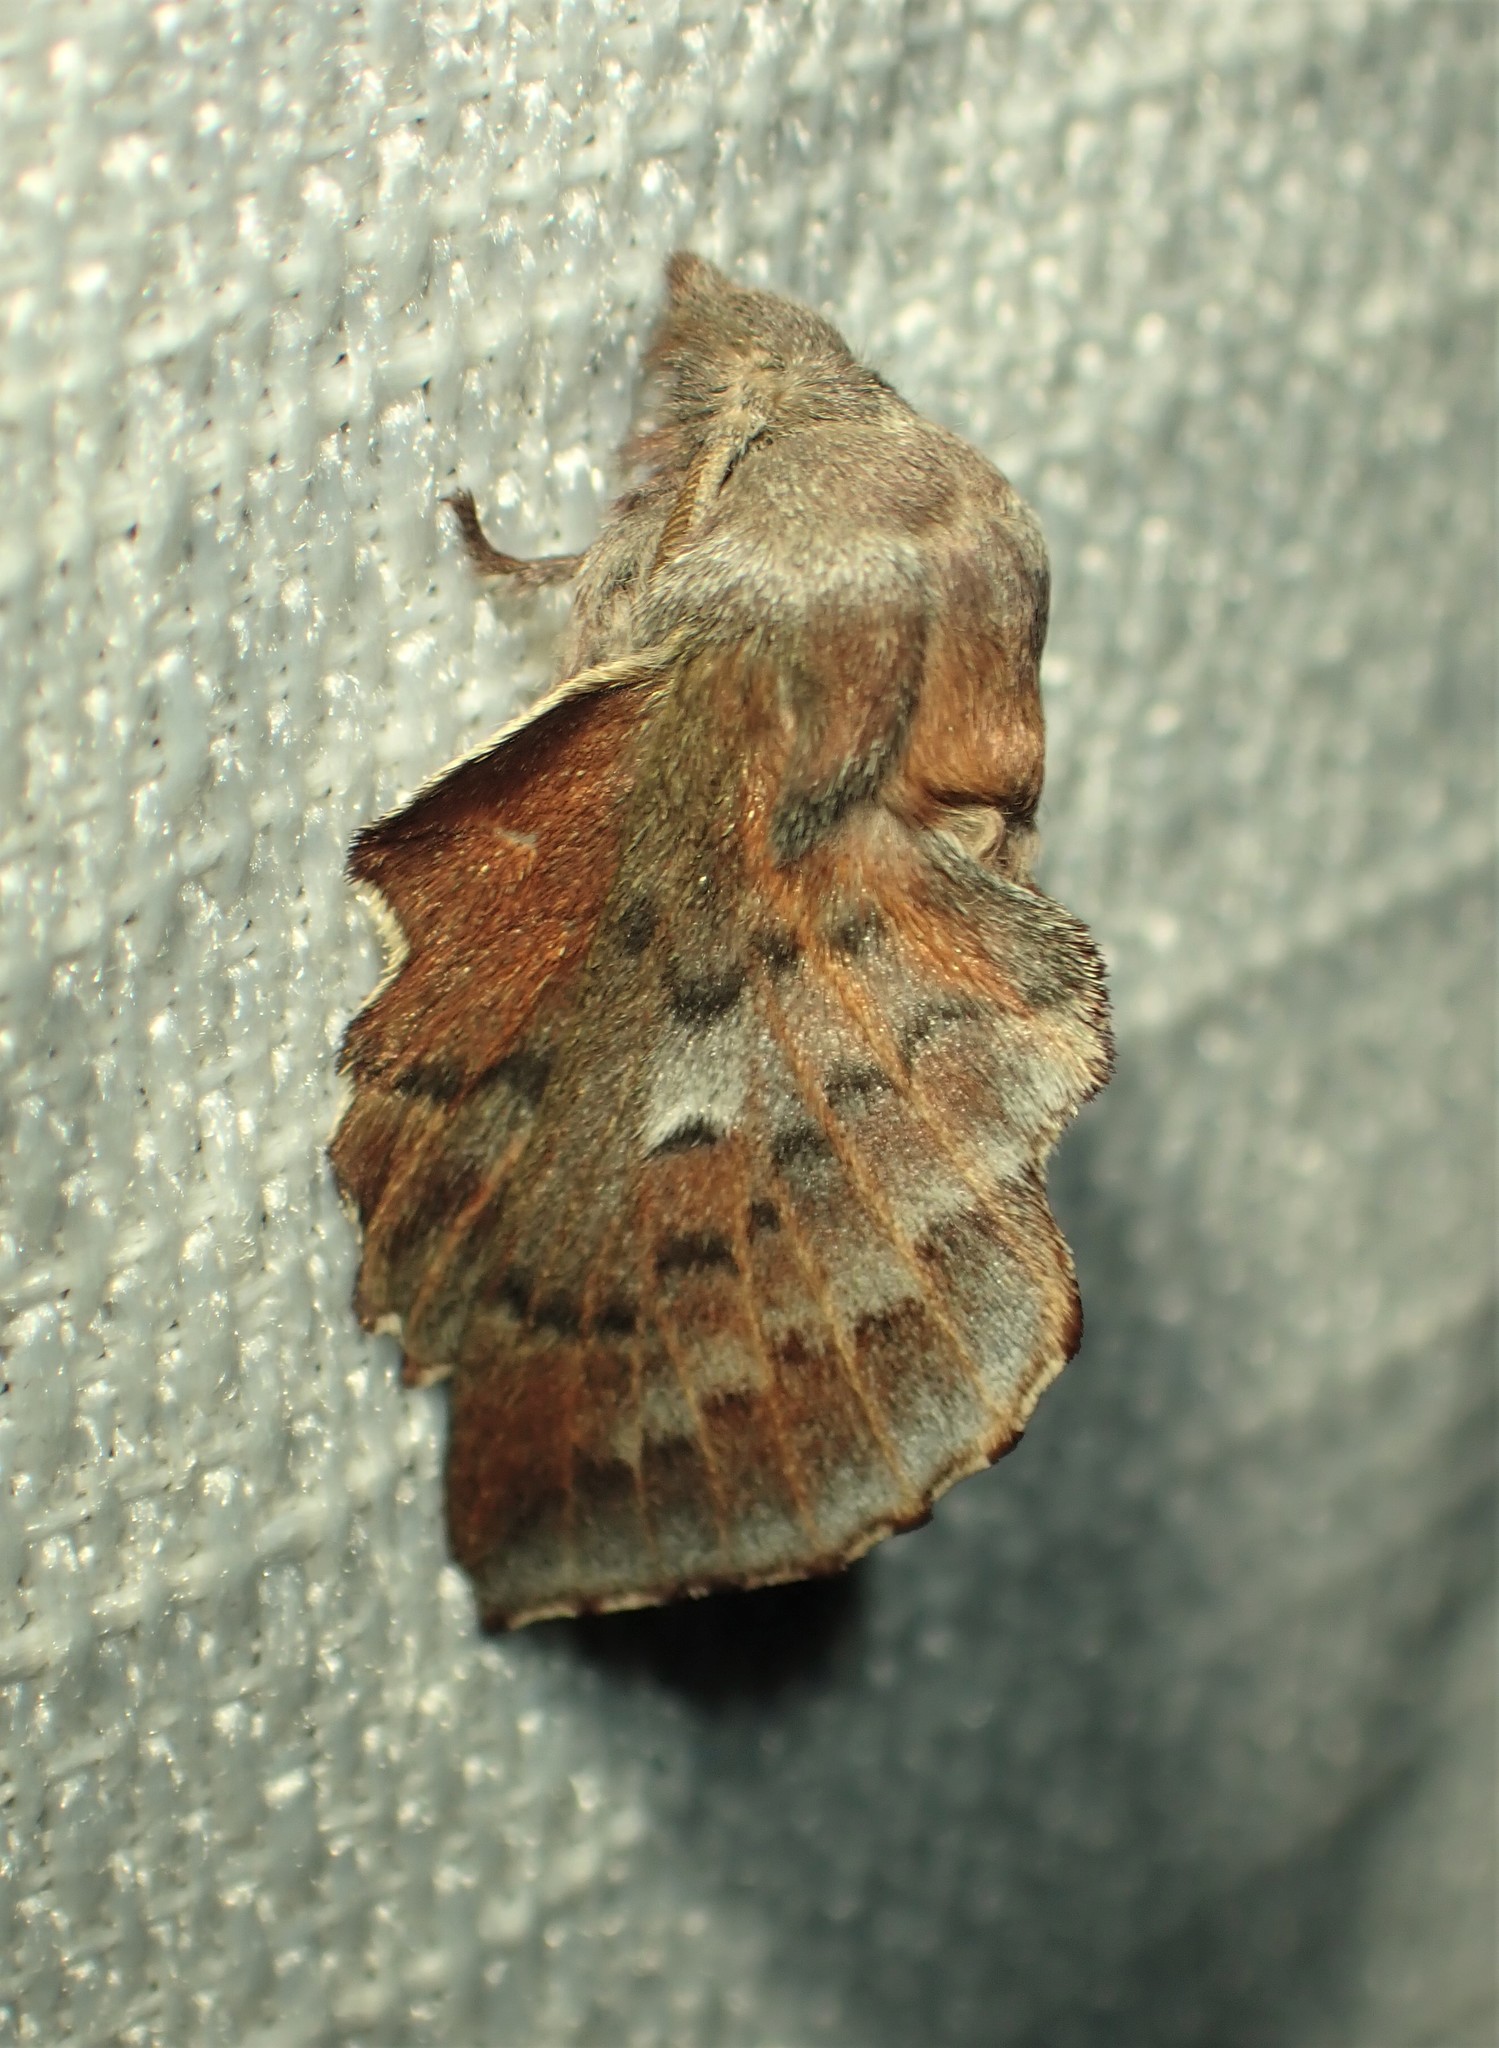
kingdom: Animalia
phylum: Arthropoda
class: Insecta
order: Lepidoptera
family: Lasiocampidae
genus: Phyllodesma
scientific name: Phyllodesma americana
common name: American lappet moth
